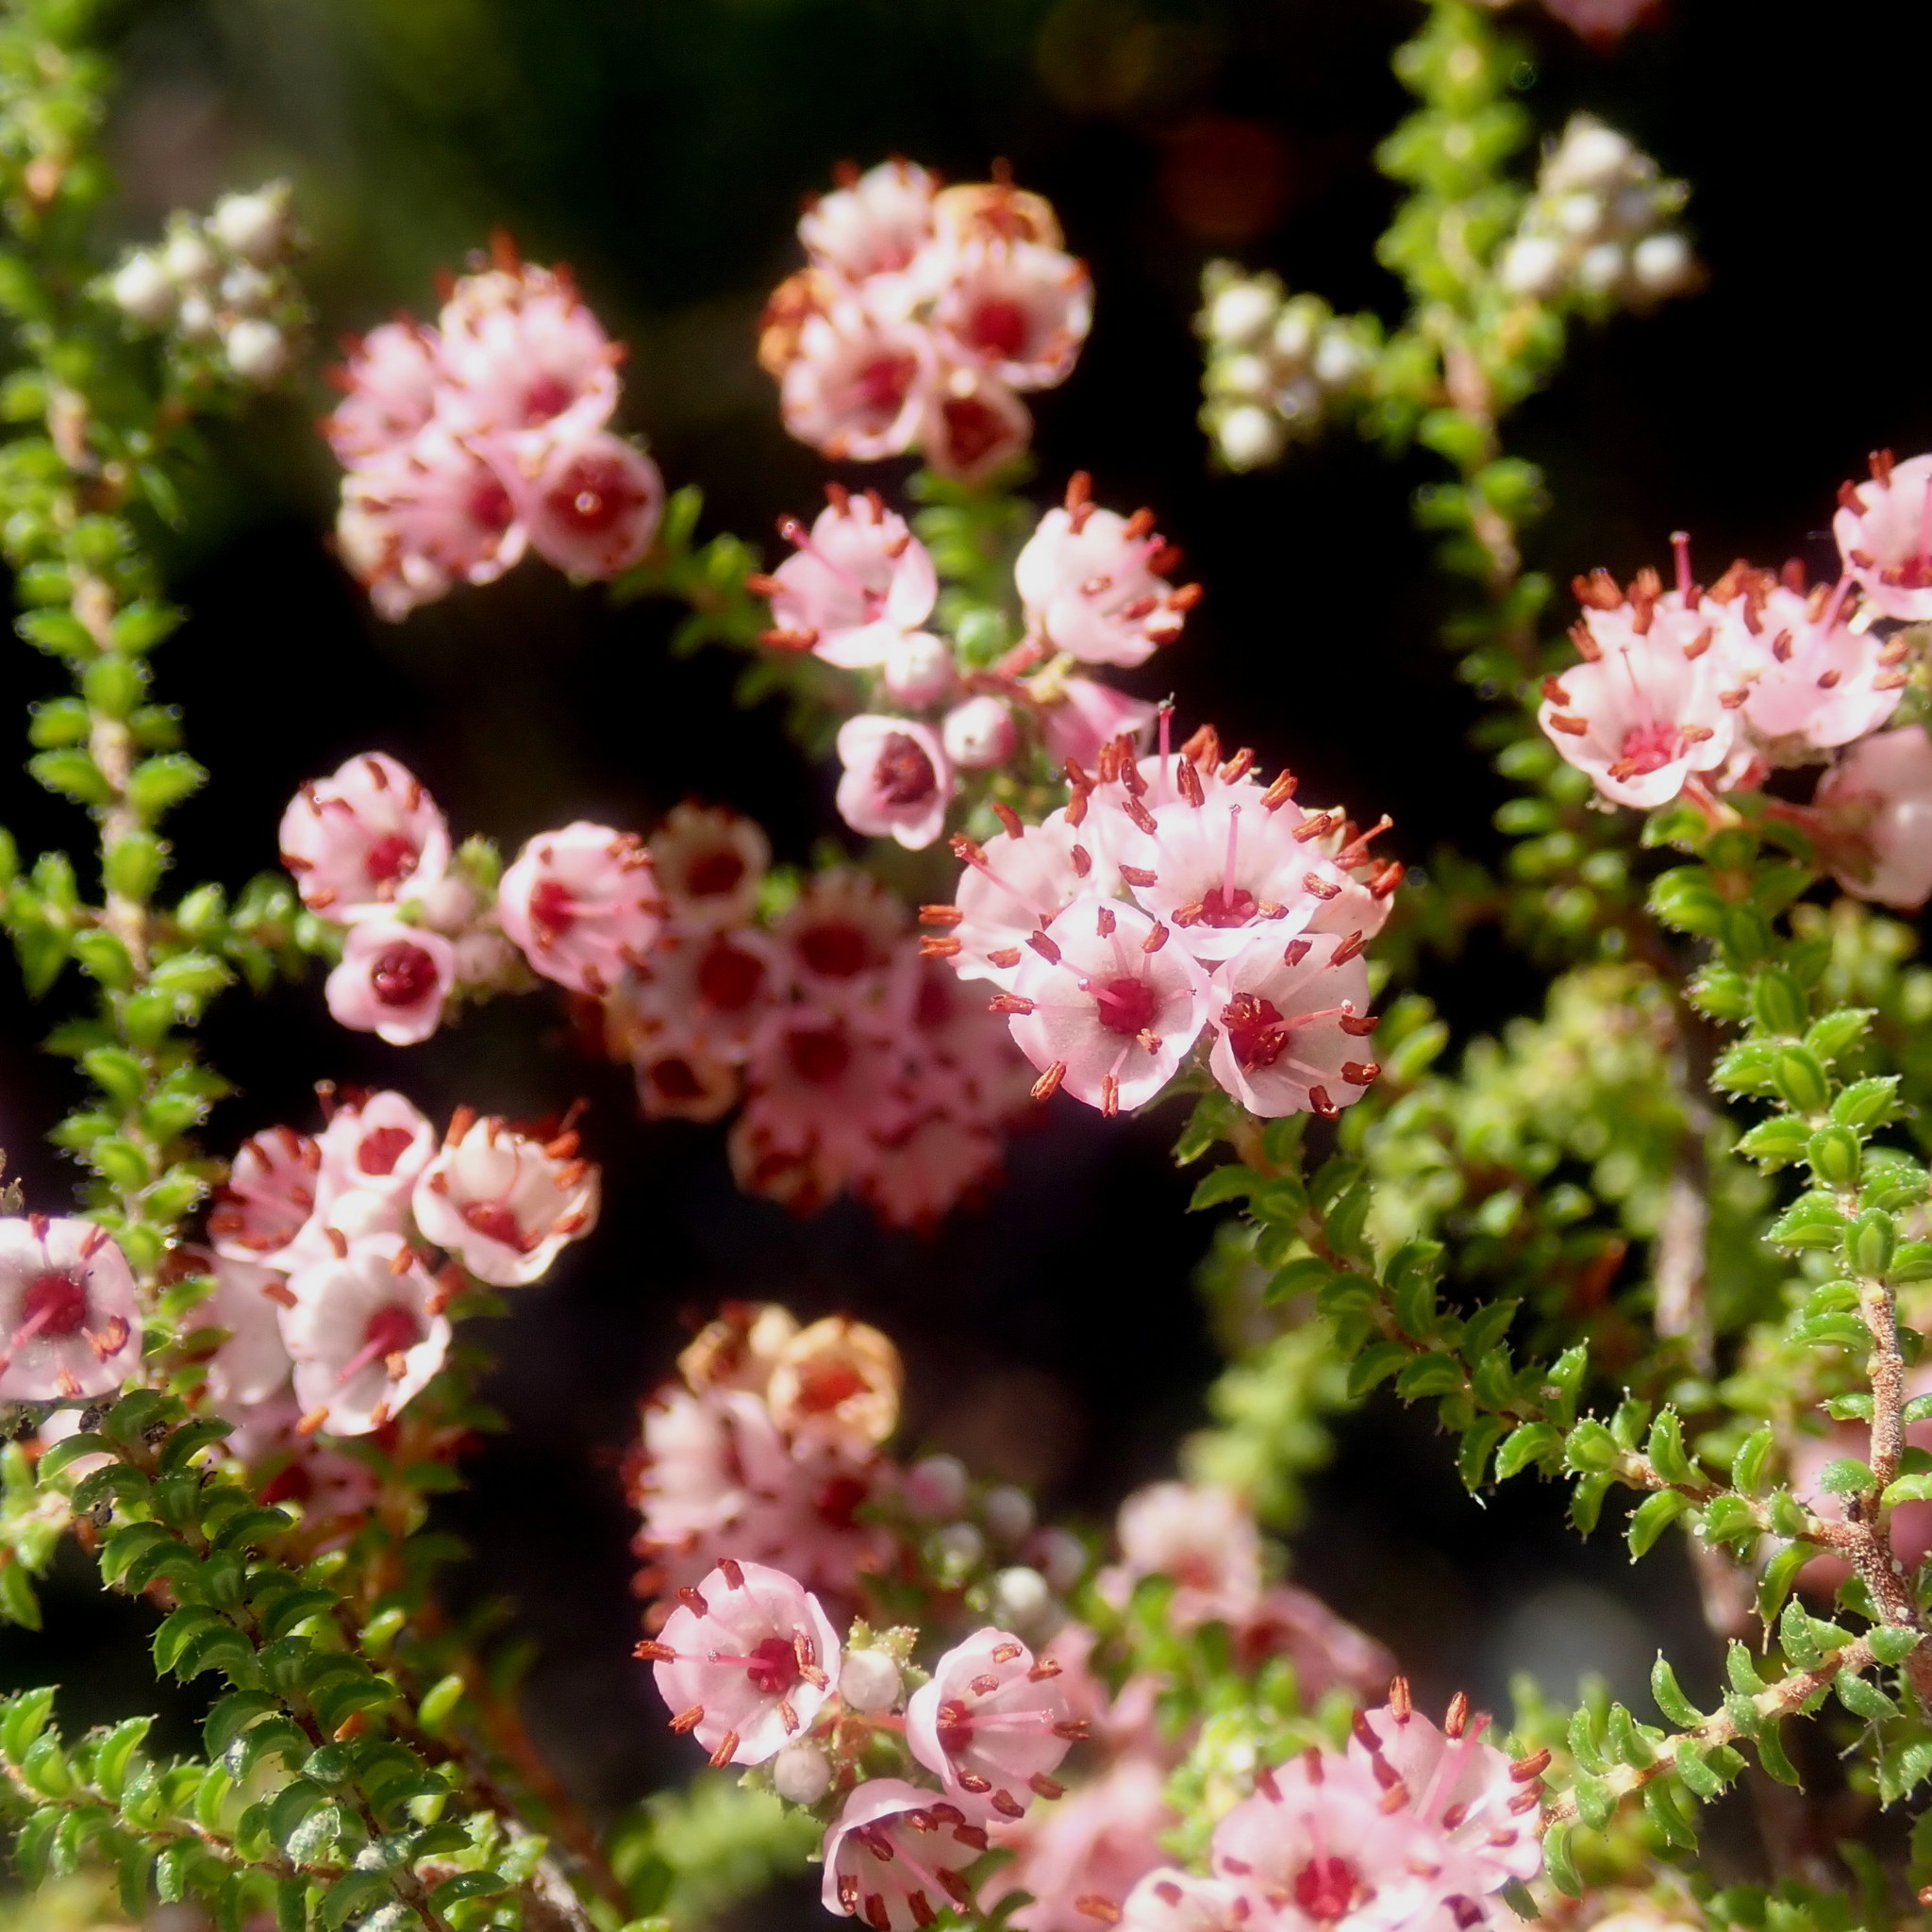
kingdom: Plantae
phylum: Tracheophyta
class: Magnoliopsida
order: Ericales
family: Ericaceae
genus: Erica
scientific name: Erica brachycentra
